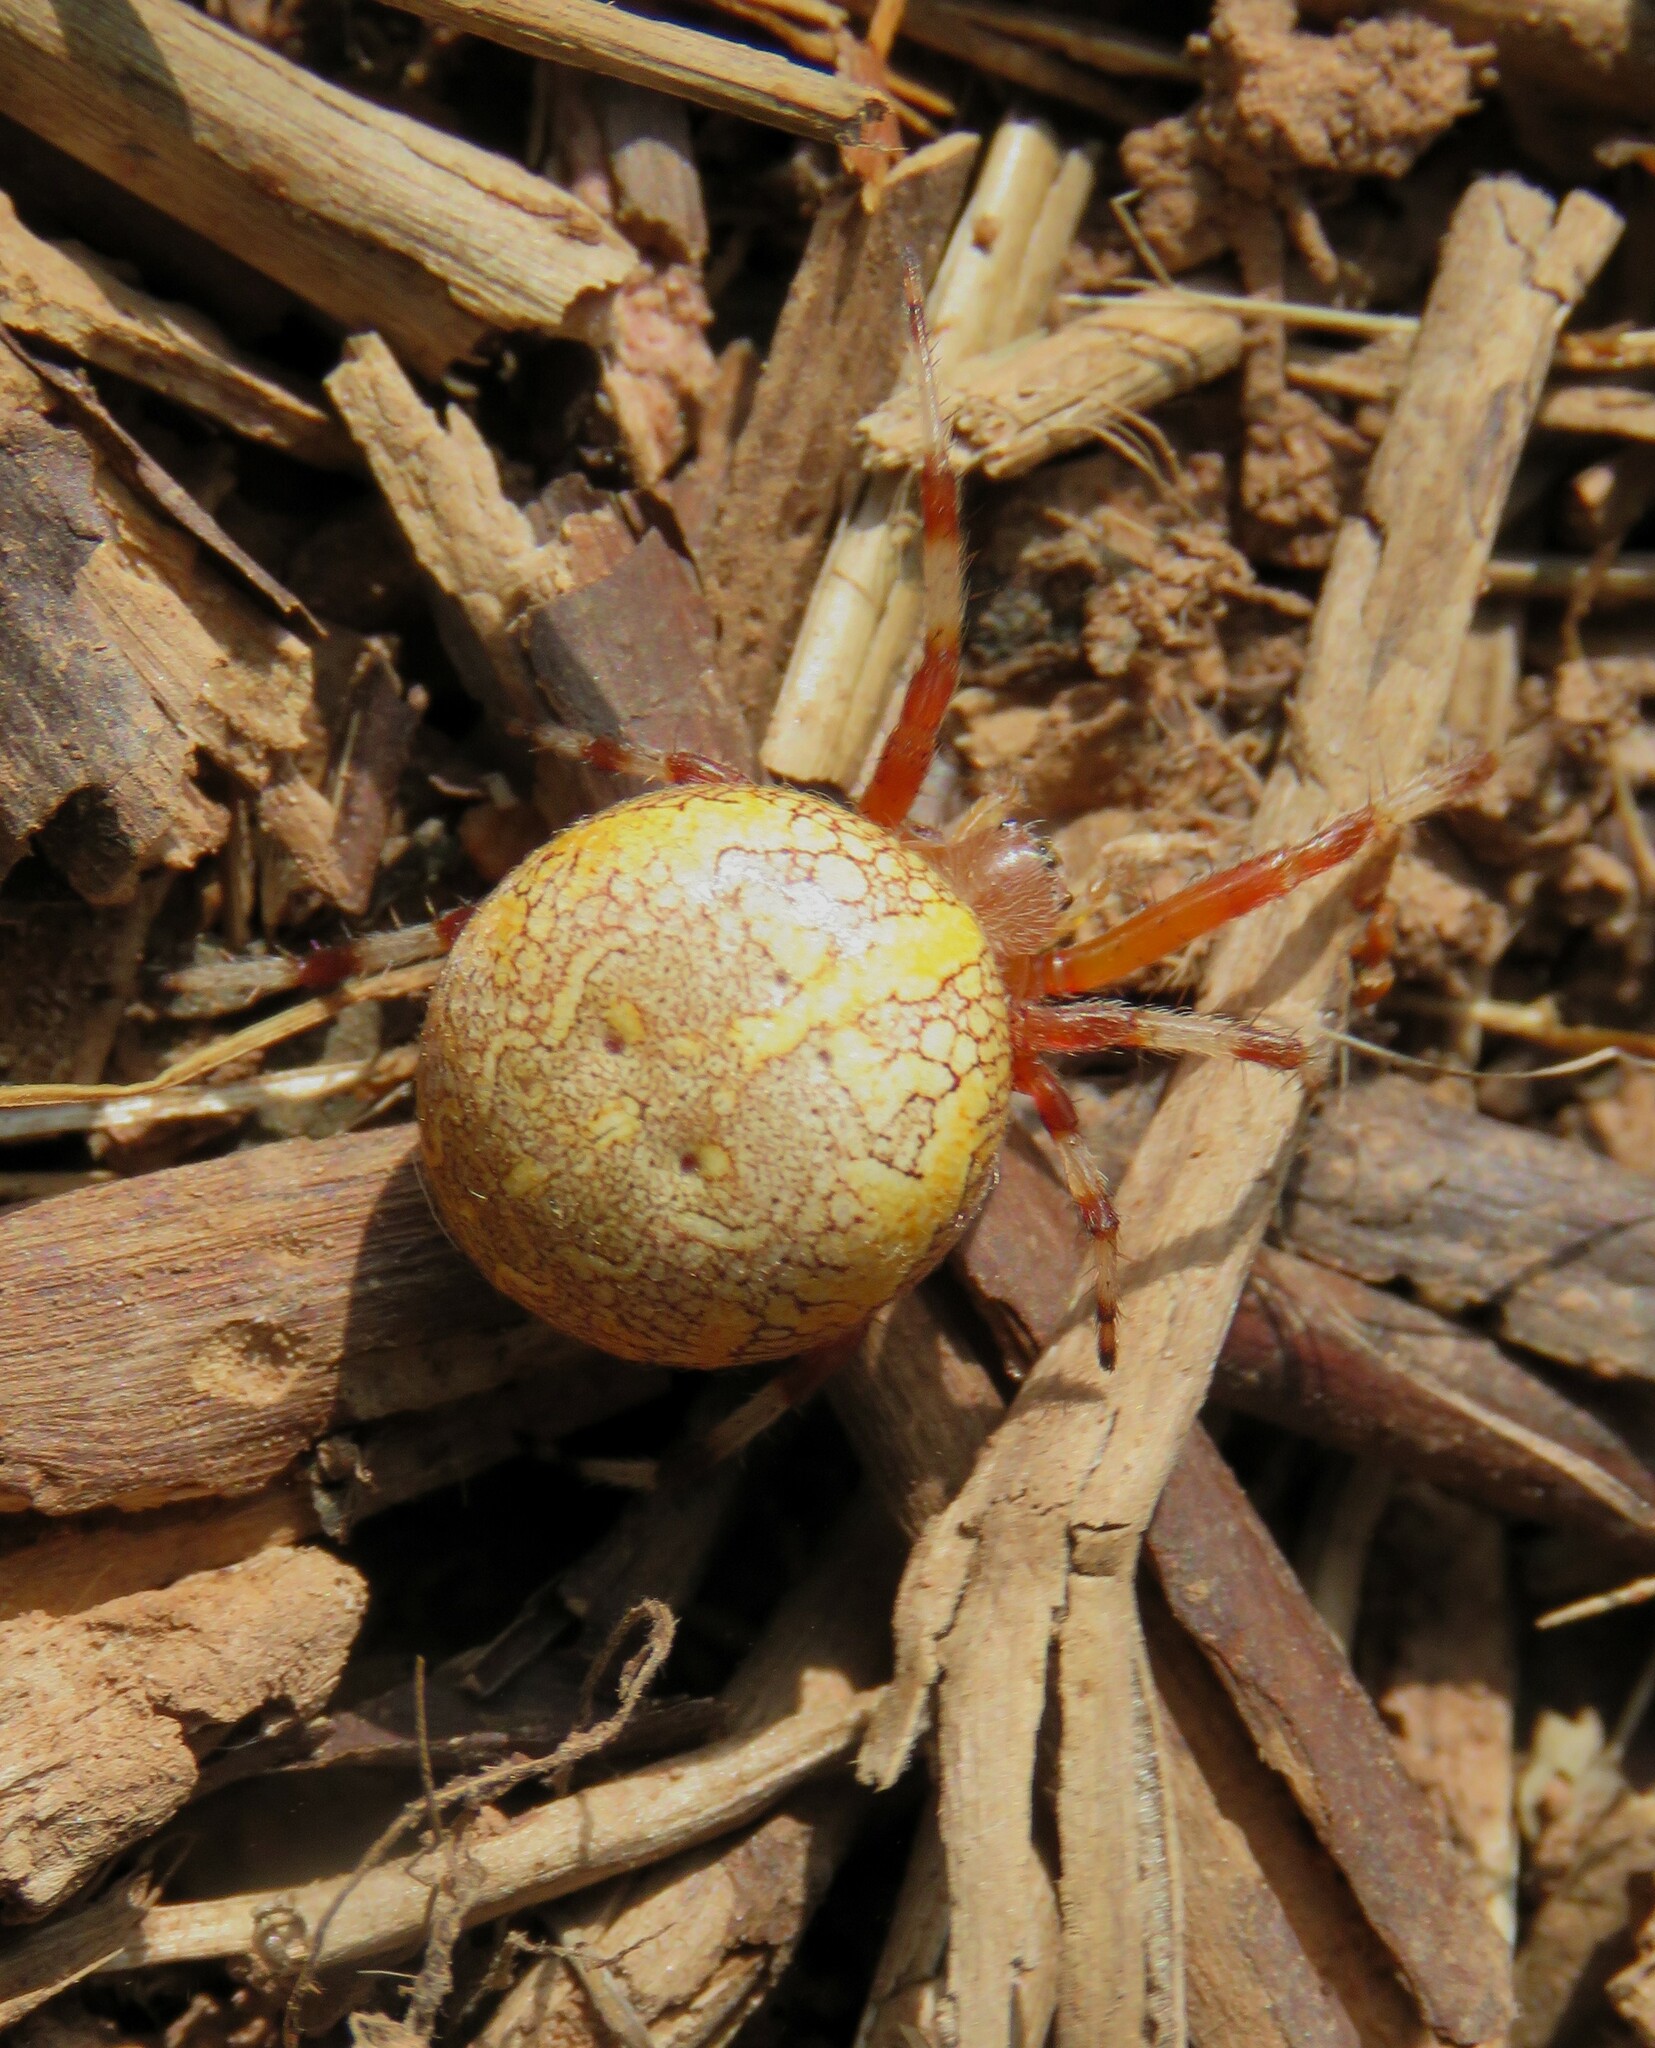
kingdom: Animalia
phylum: Arthropoda
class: Arachnida
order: Araneae
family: Araneidae
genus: Araneus
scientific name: Araneus marmoreus
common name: Marbled orbweaver
